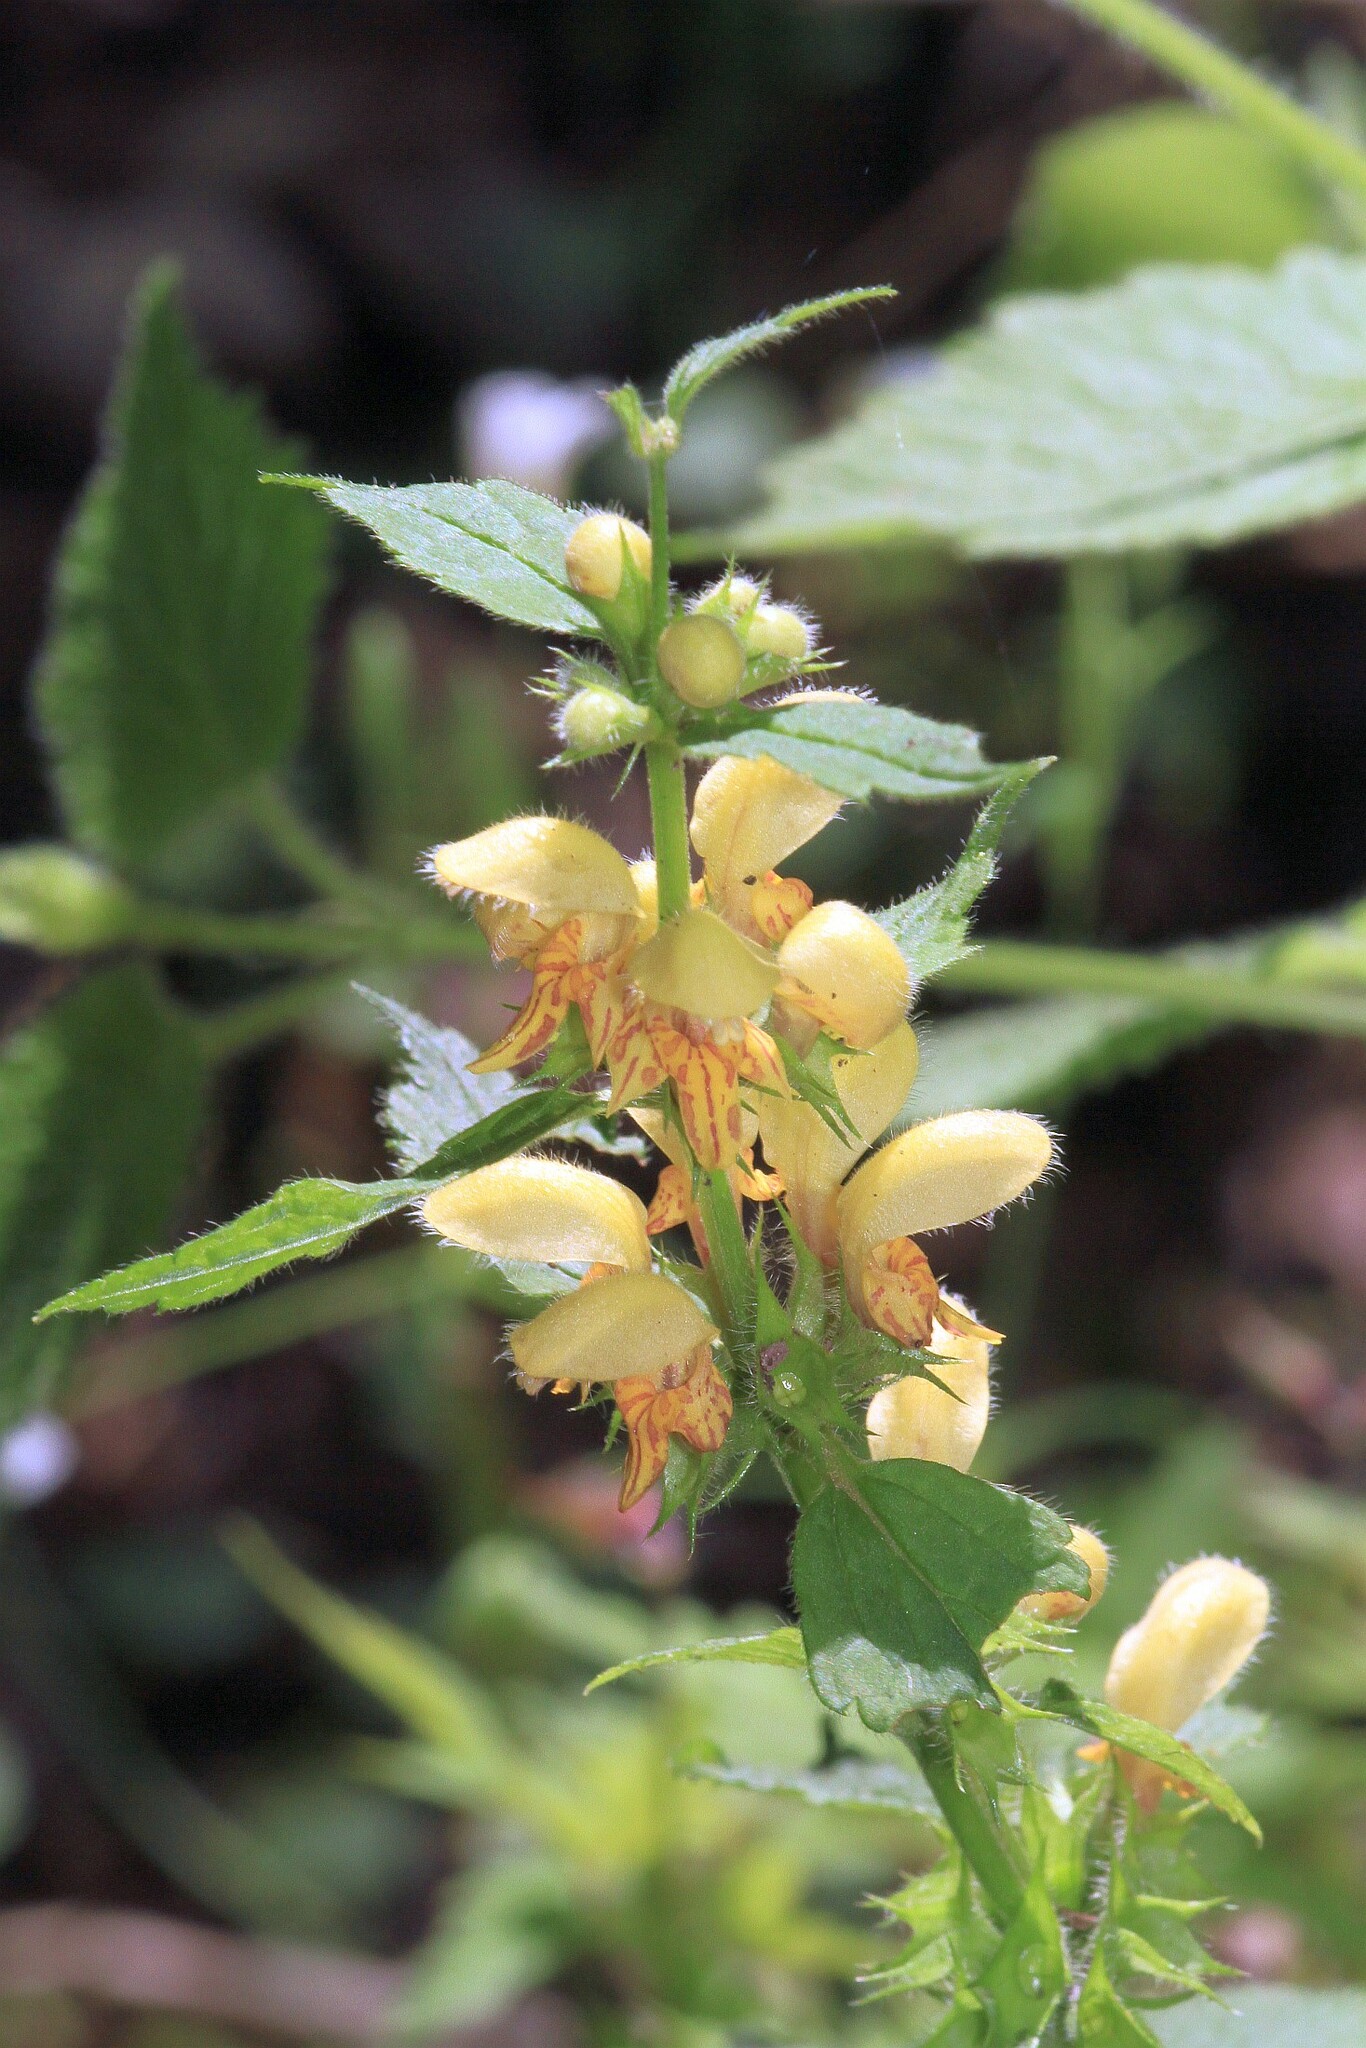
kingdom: Plantae
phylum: Tracheophyta
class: Magnoliopsida
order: Lamiales
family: Lamiaceae
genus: Lamium
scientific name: Lamium galeobdolon
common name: Yellow archangel
